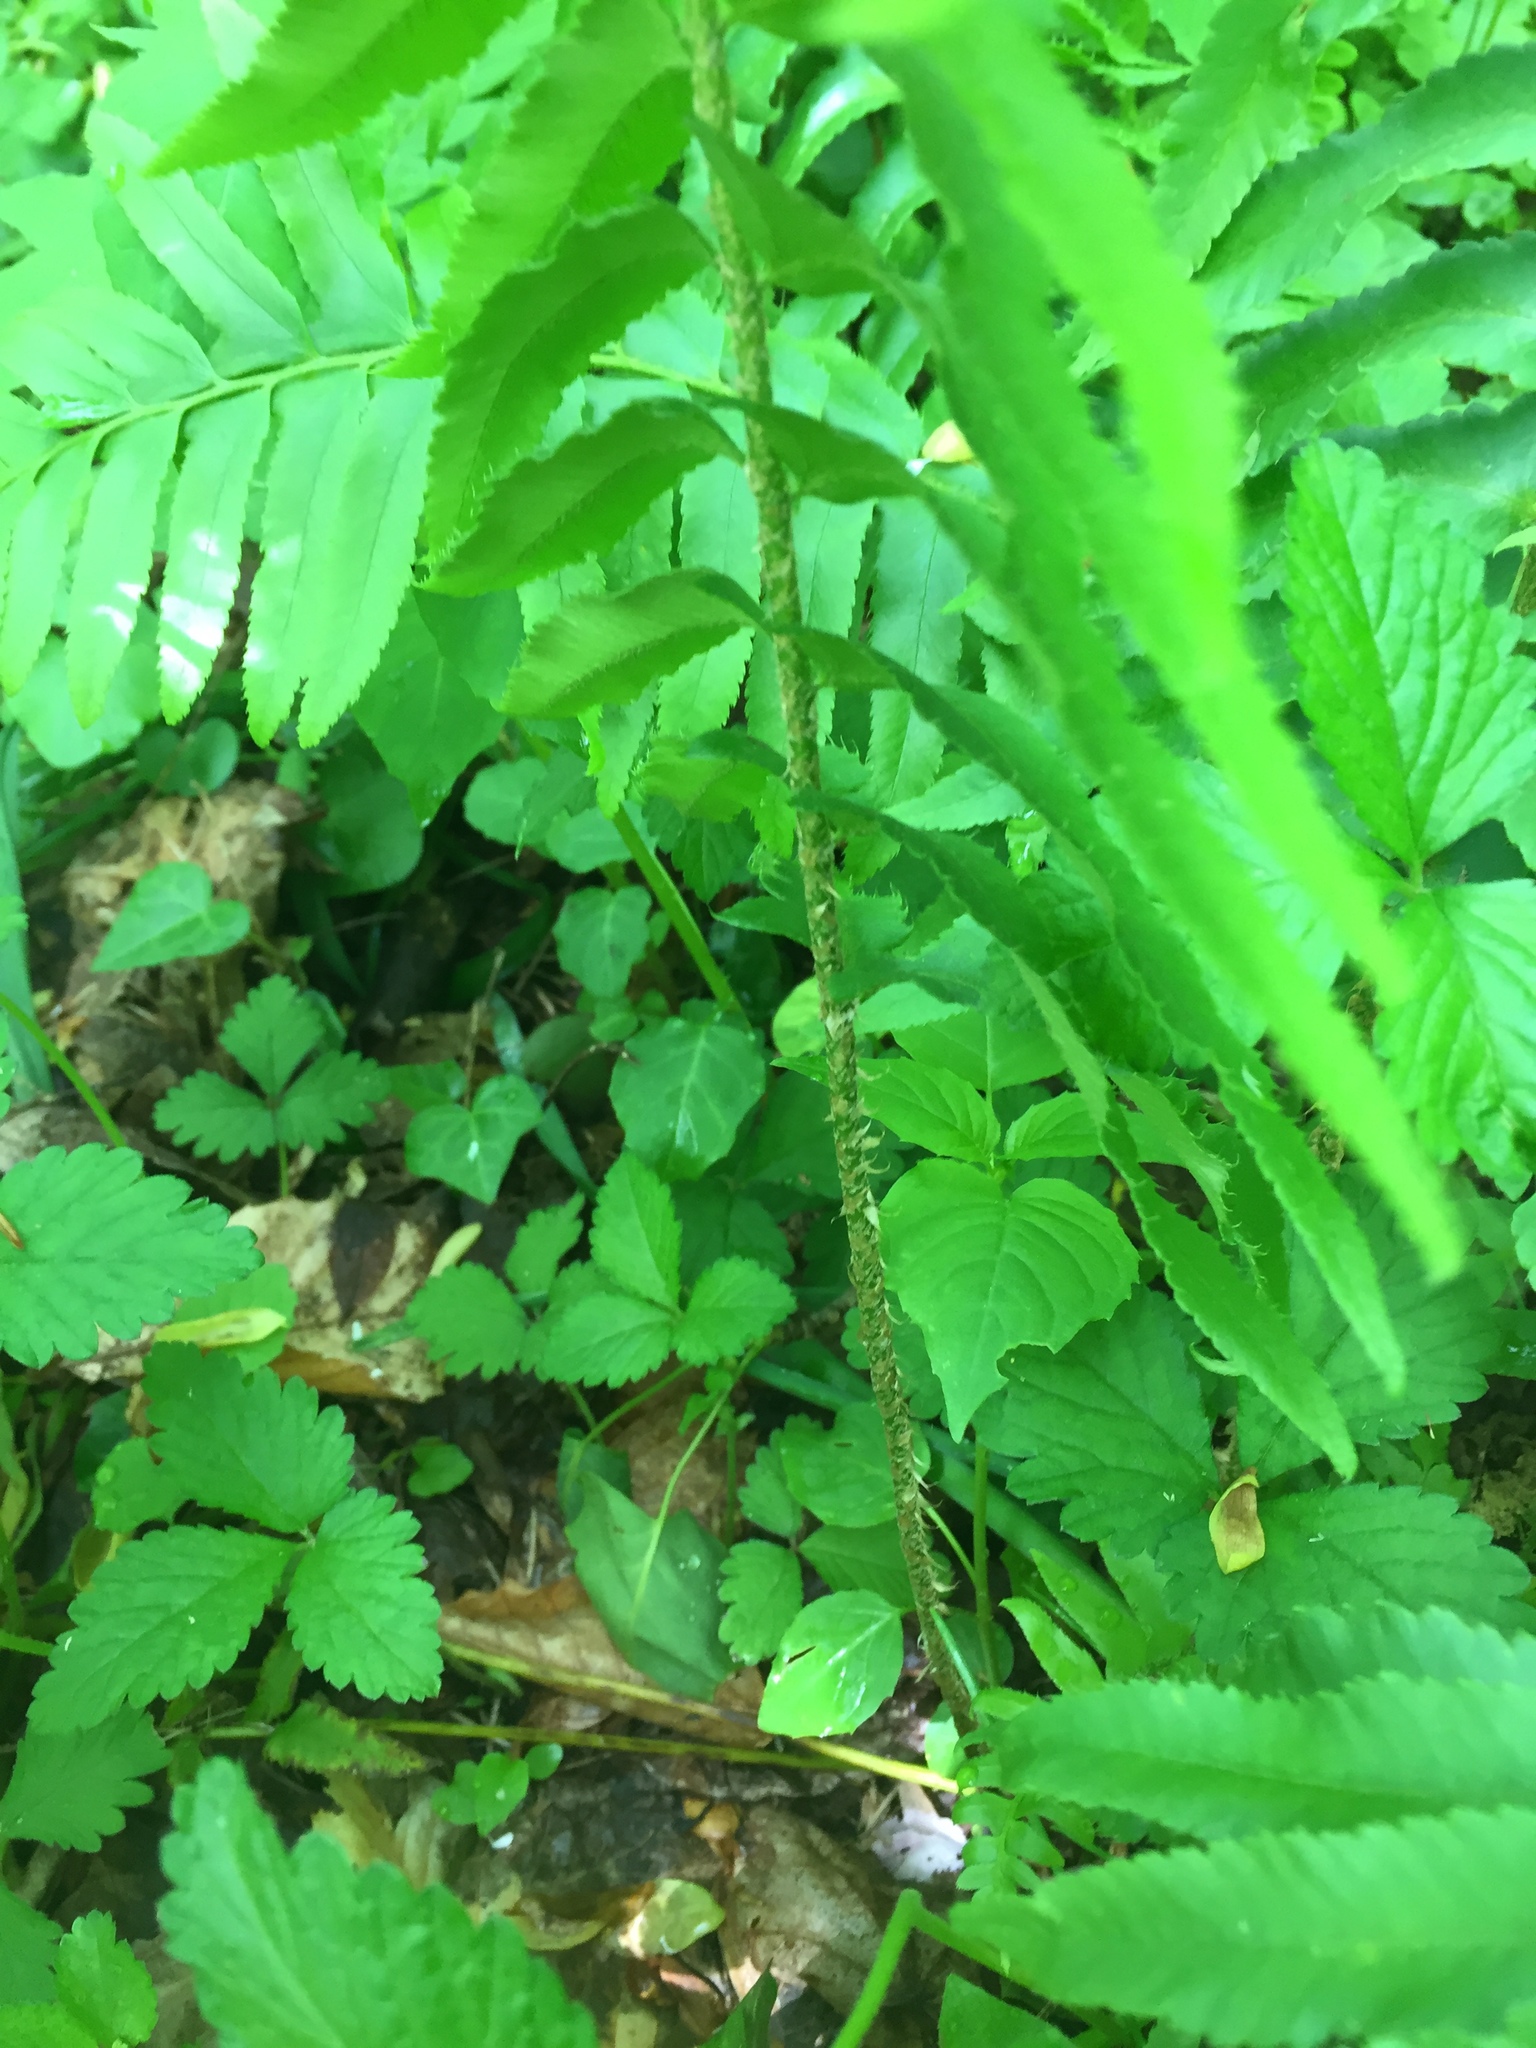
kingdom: Plantae
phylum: Tracheophyta
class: Polypodiopsida
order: Polypodiales
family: Dryopteridaceae
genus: Polystichum
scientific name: Polystichum acrostichoides
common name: Christmas fern
